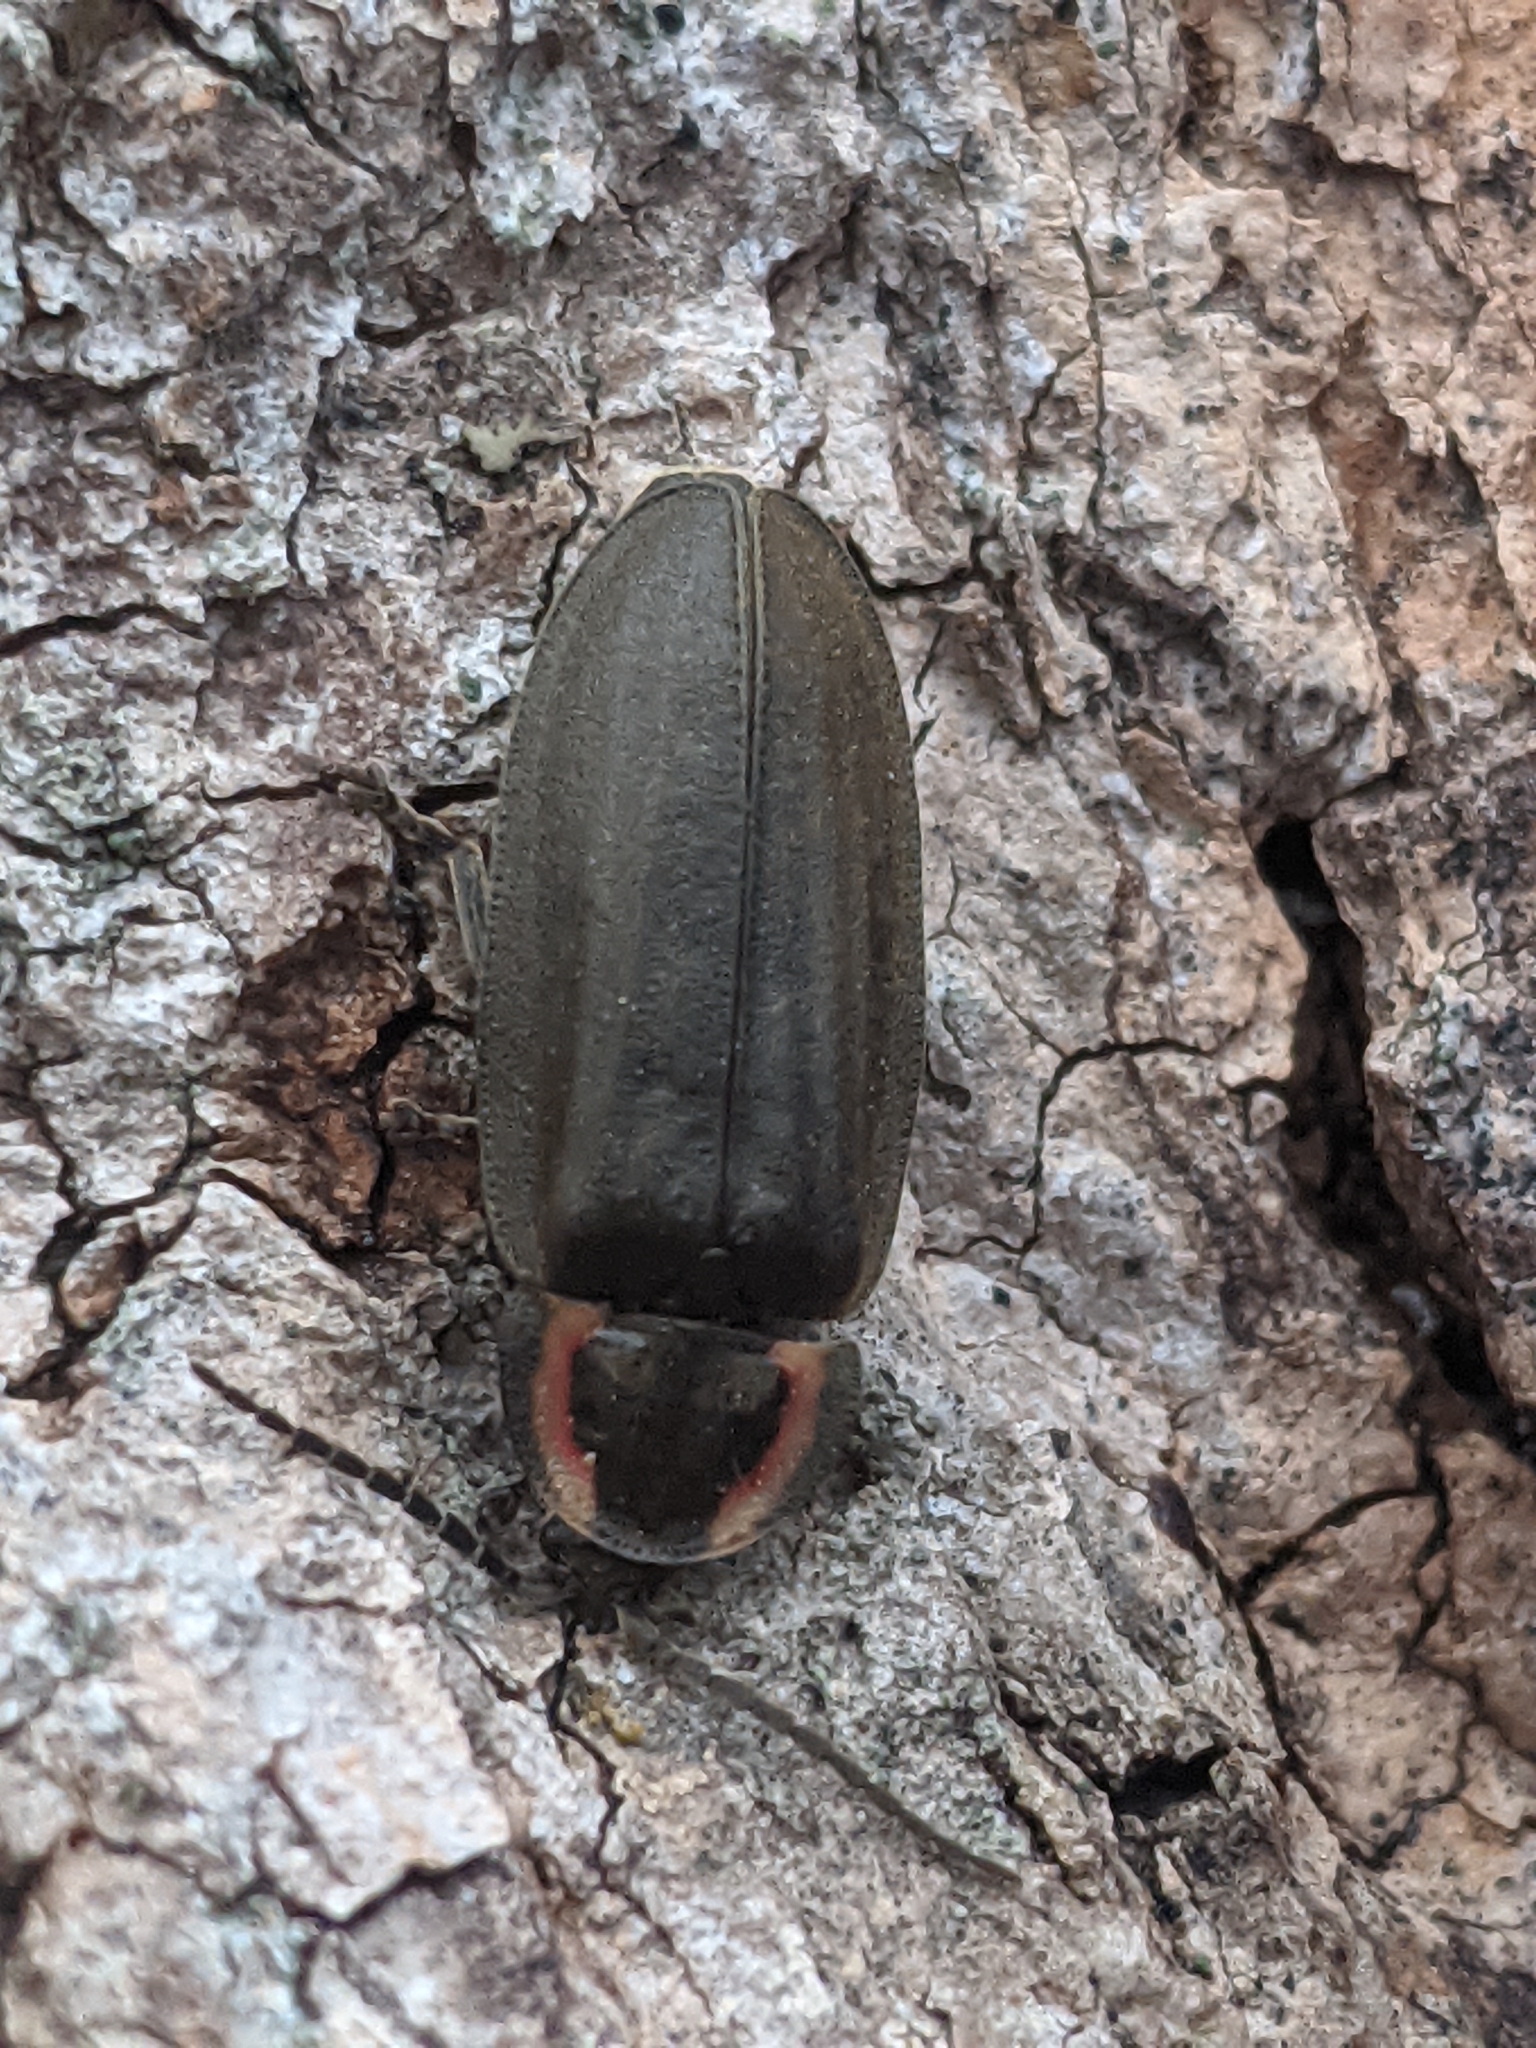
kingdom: Animalia
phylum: Arthropoda
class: Insecta
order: Coleoptera
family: Lampyridae
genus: Photinus
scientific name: Photinus corrusca
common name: Winter firefly
